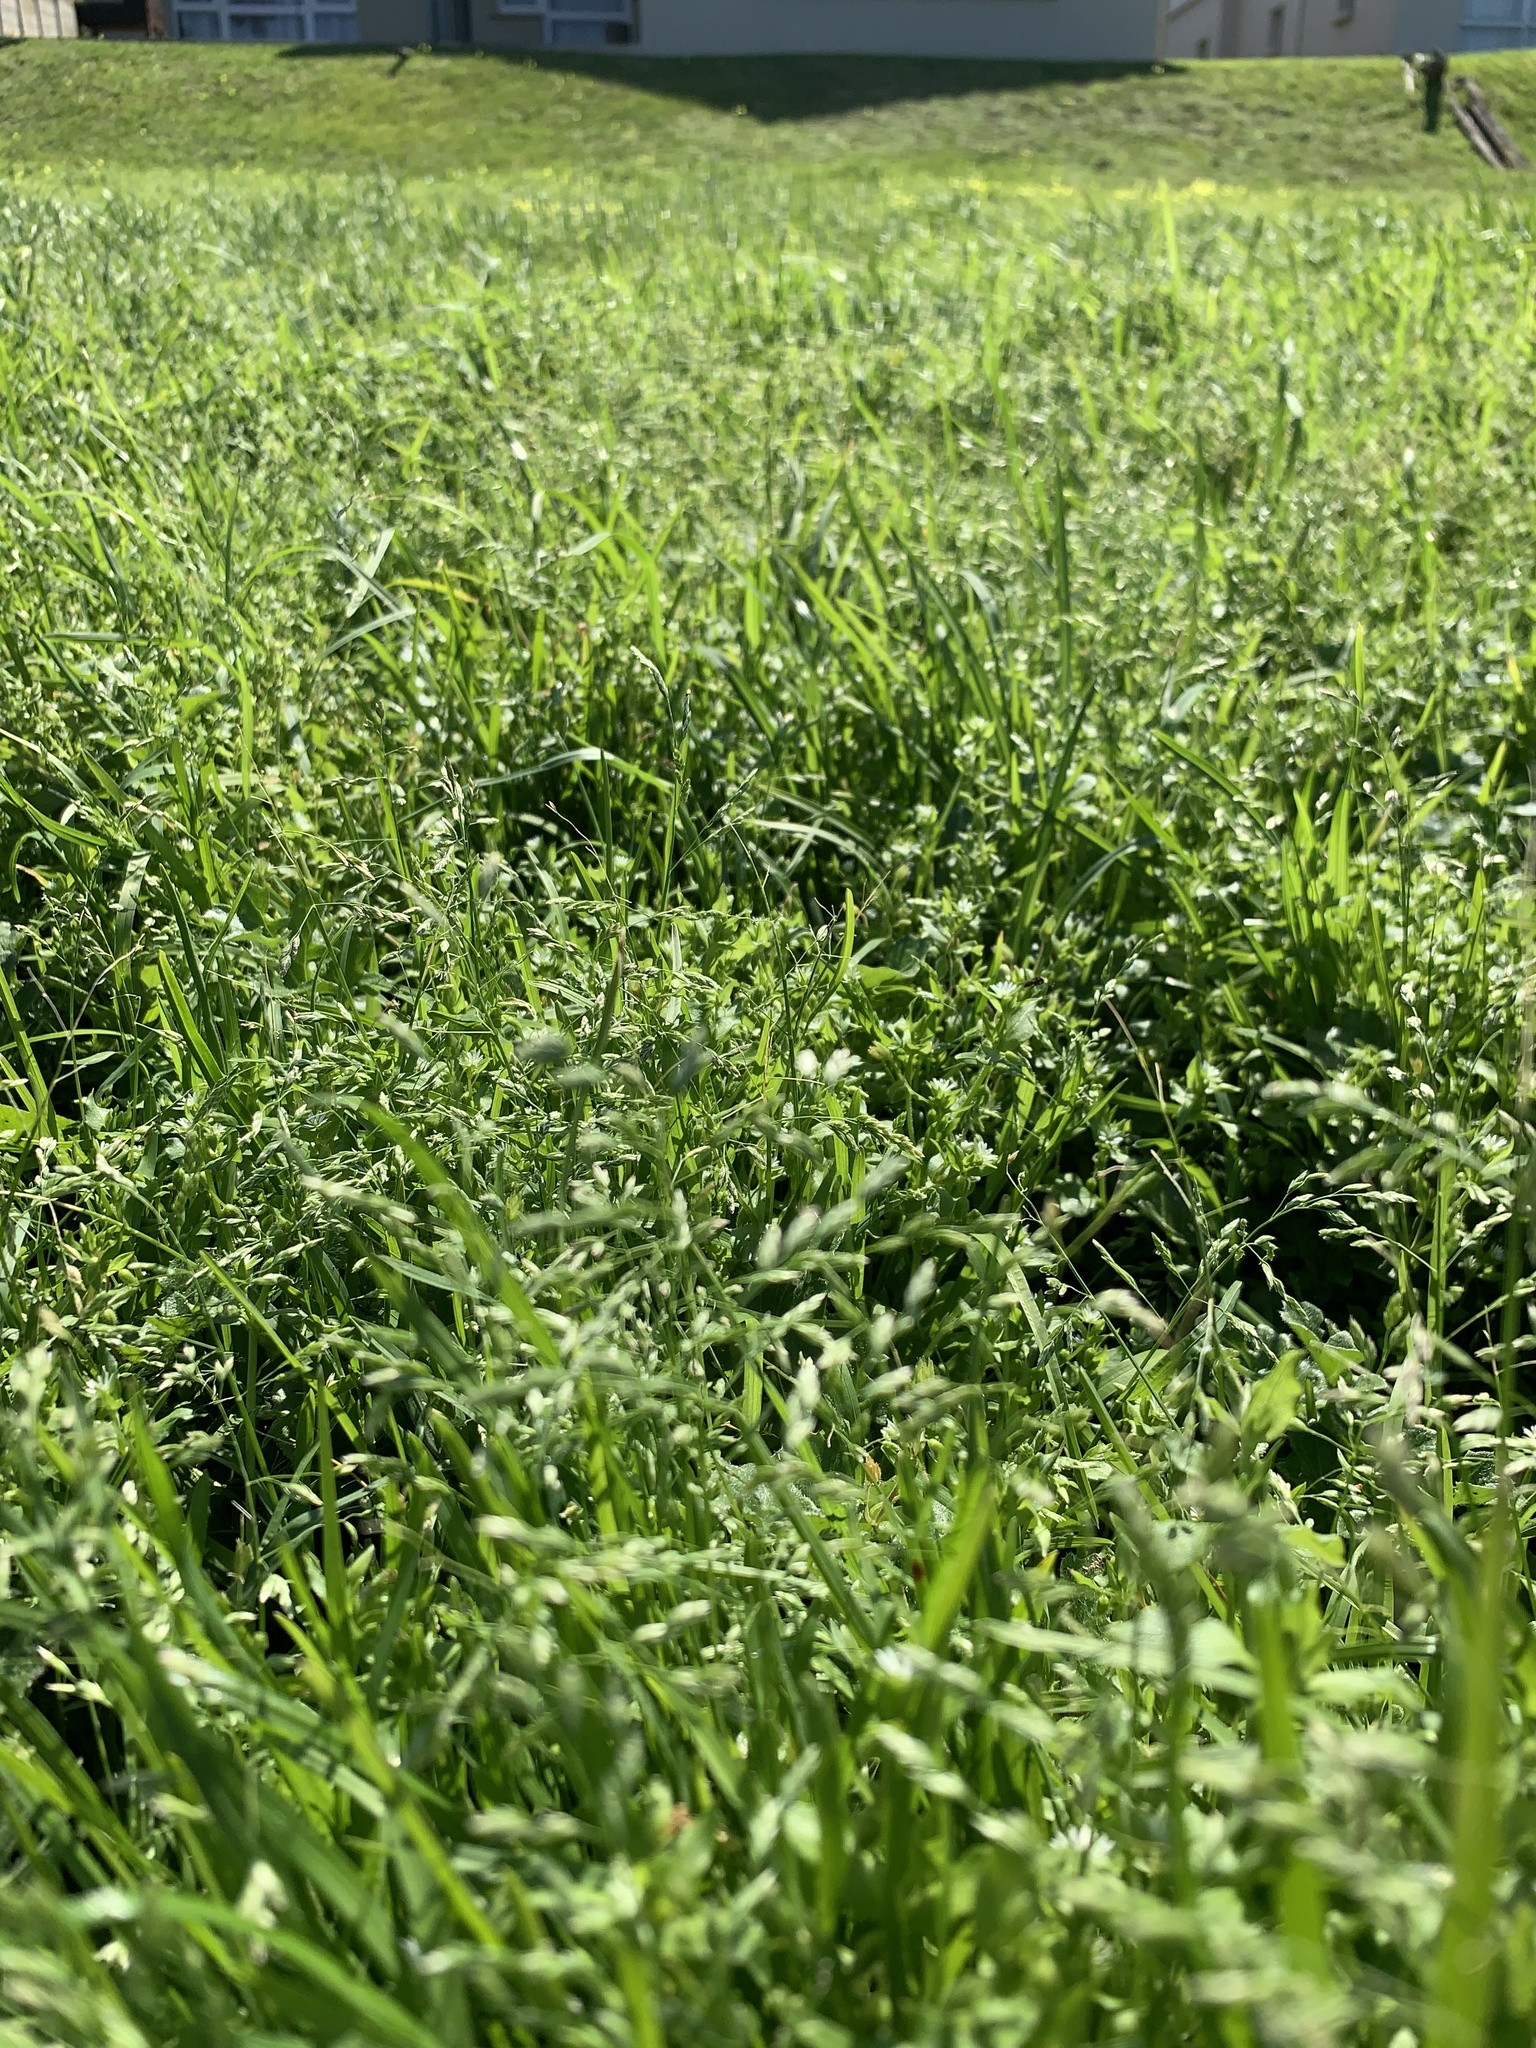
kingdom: Plantae
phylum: Tracheophyta
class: Liliopsida
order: Poales
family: Poaceae
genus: Poa
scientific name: Poa annua
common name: Annual bluegrass
